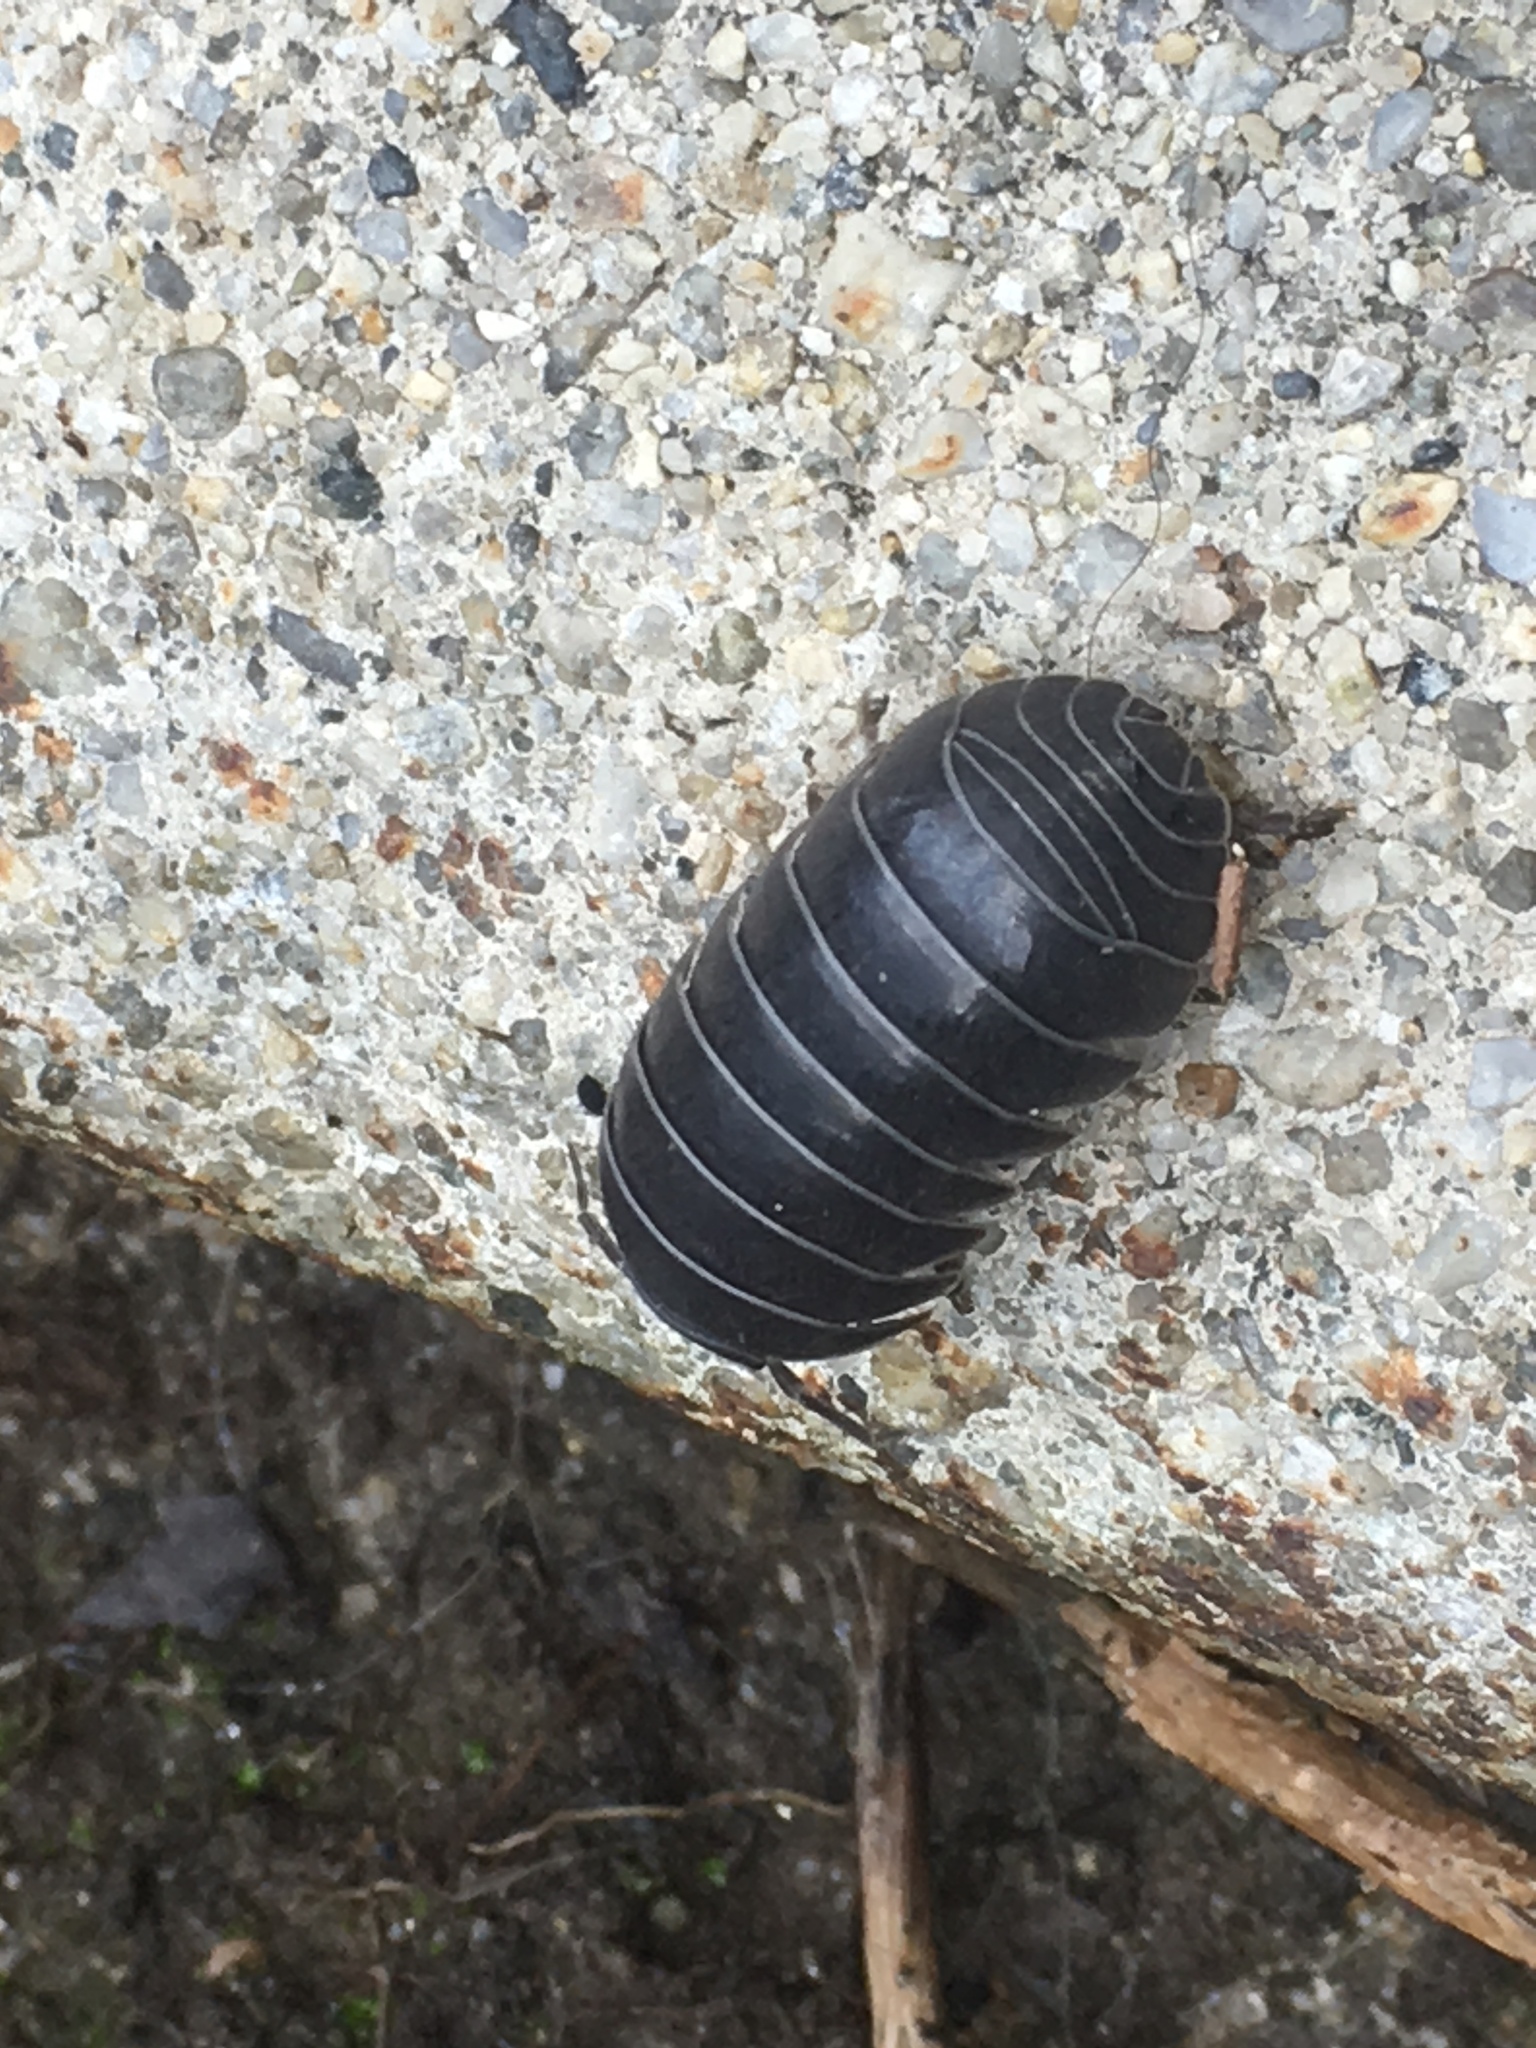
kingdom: Animalia
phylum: Arthropoda
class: Malacostraca
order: Isopoda
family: Armadillidiidae
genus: Armadillidium
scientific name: Armadillidium vulgare
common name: Common pill woodlouse
